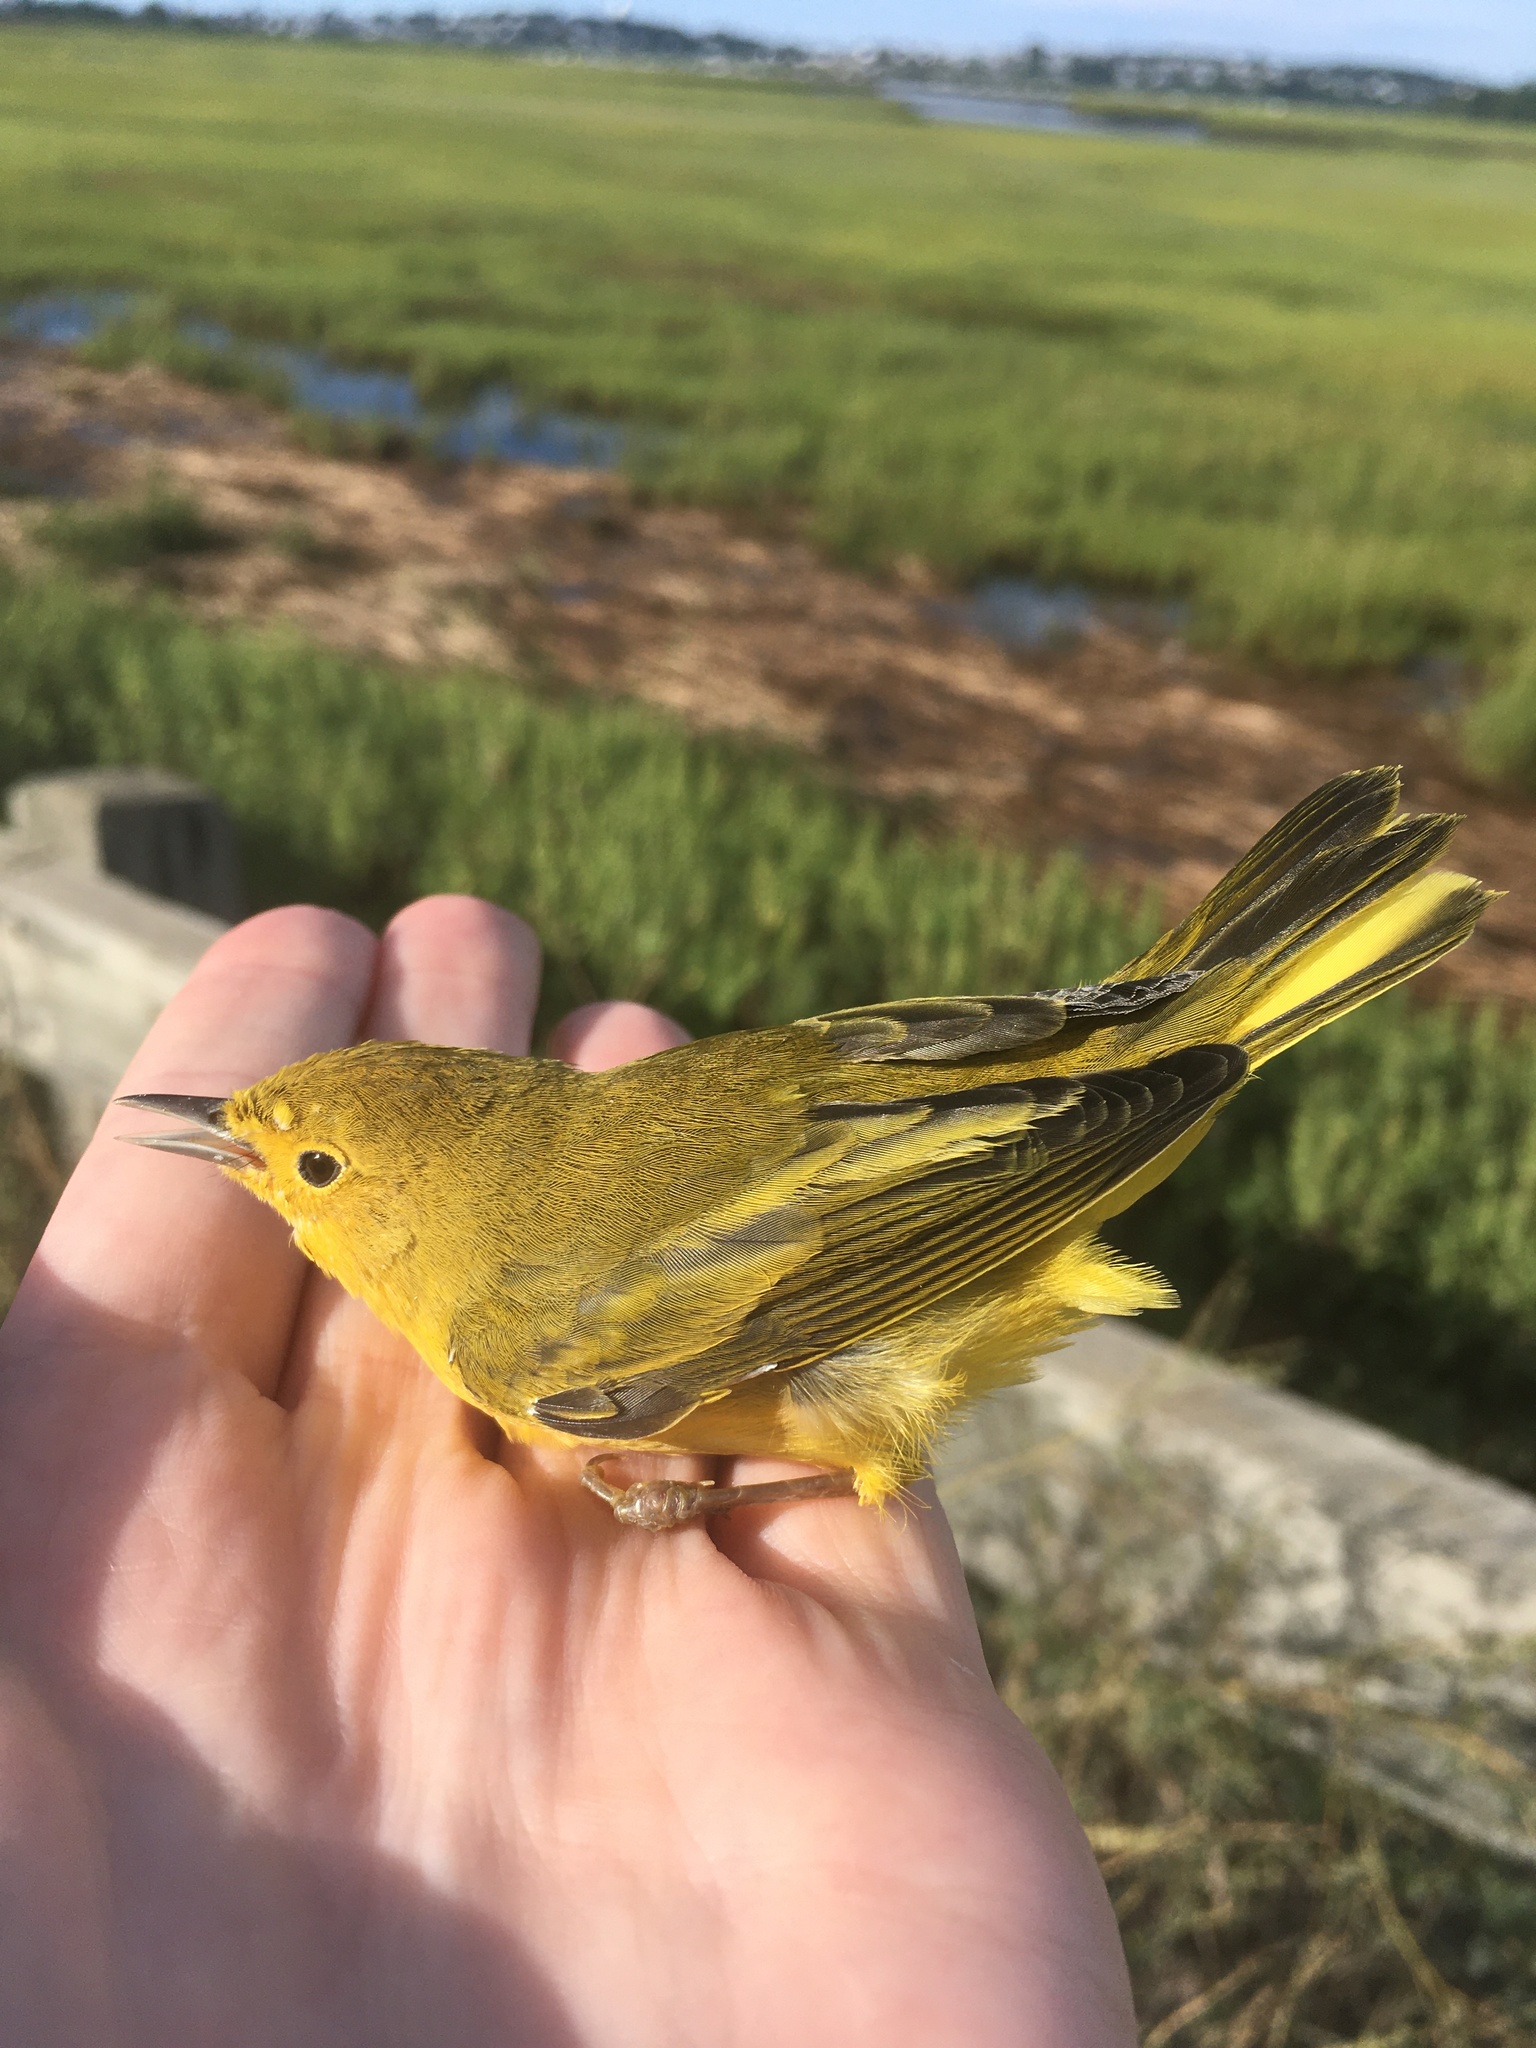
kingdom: Animalia
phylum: Chordata
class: Aves
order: Passeriformes
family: Parulidae
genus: Setophaga
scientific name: Setophaga petechia
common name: Yellow warbler
